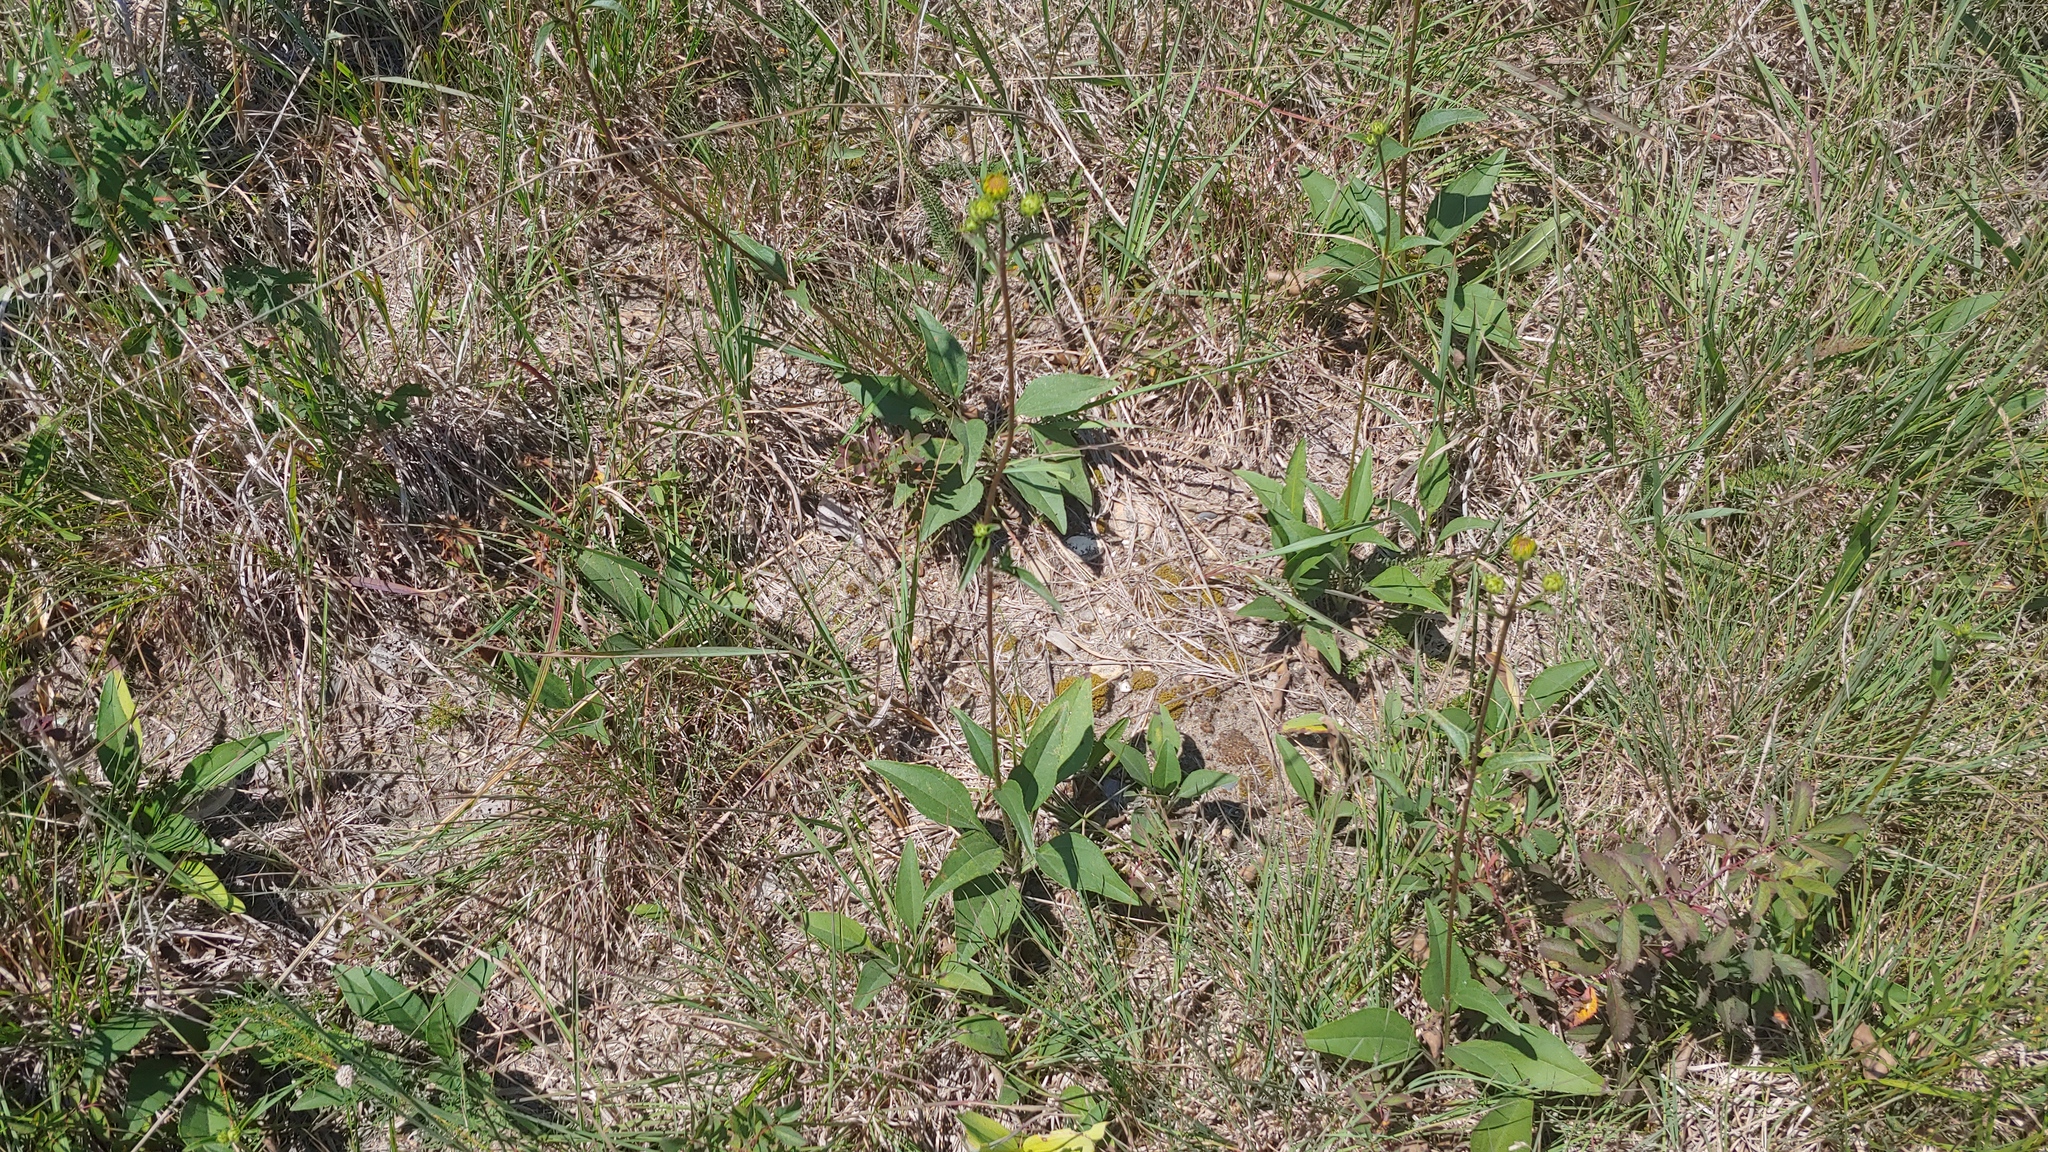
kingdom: Plantae
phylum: Tracheophyta
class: Magnoliopsida
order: Asterales
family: Asteraceae
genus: Helianthus
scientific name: Helianthus occidentalis
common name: Western sunflower
